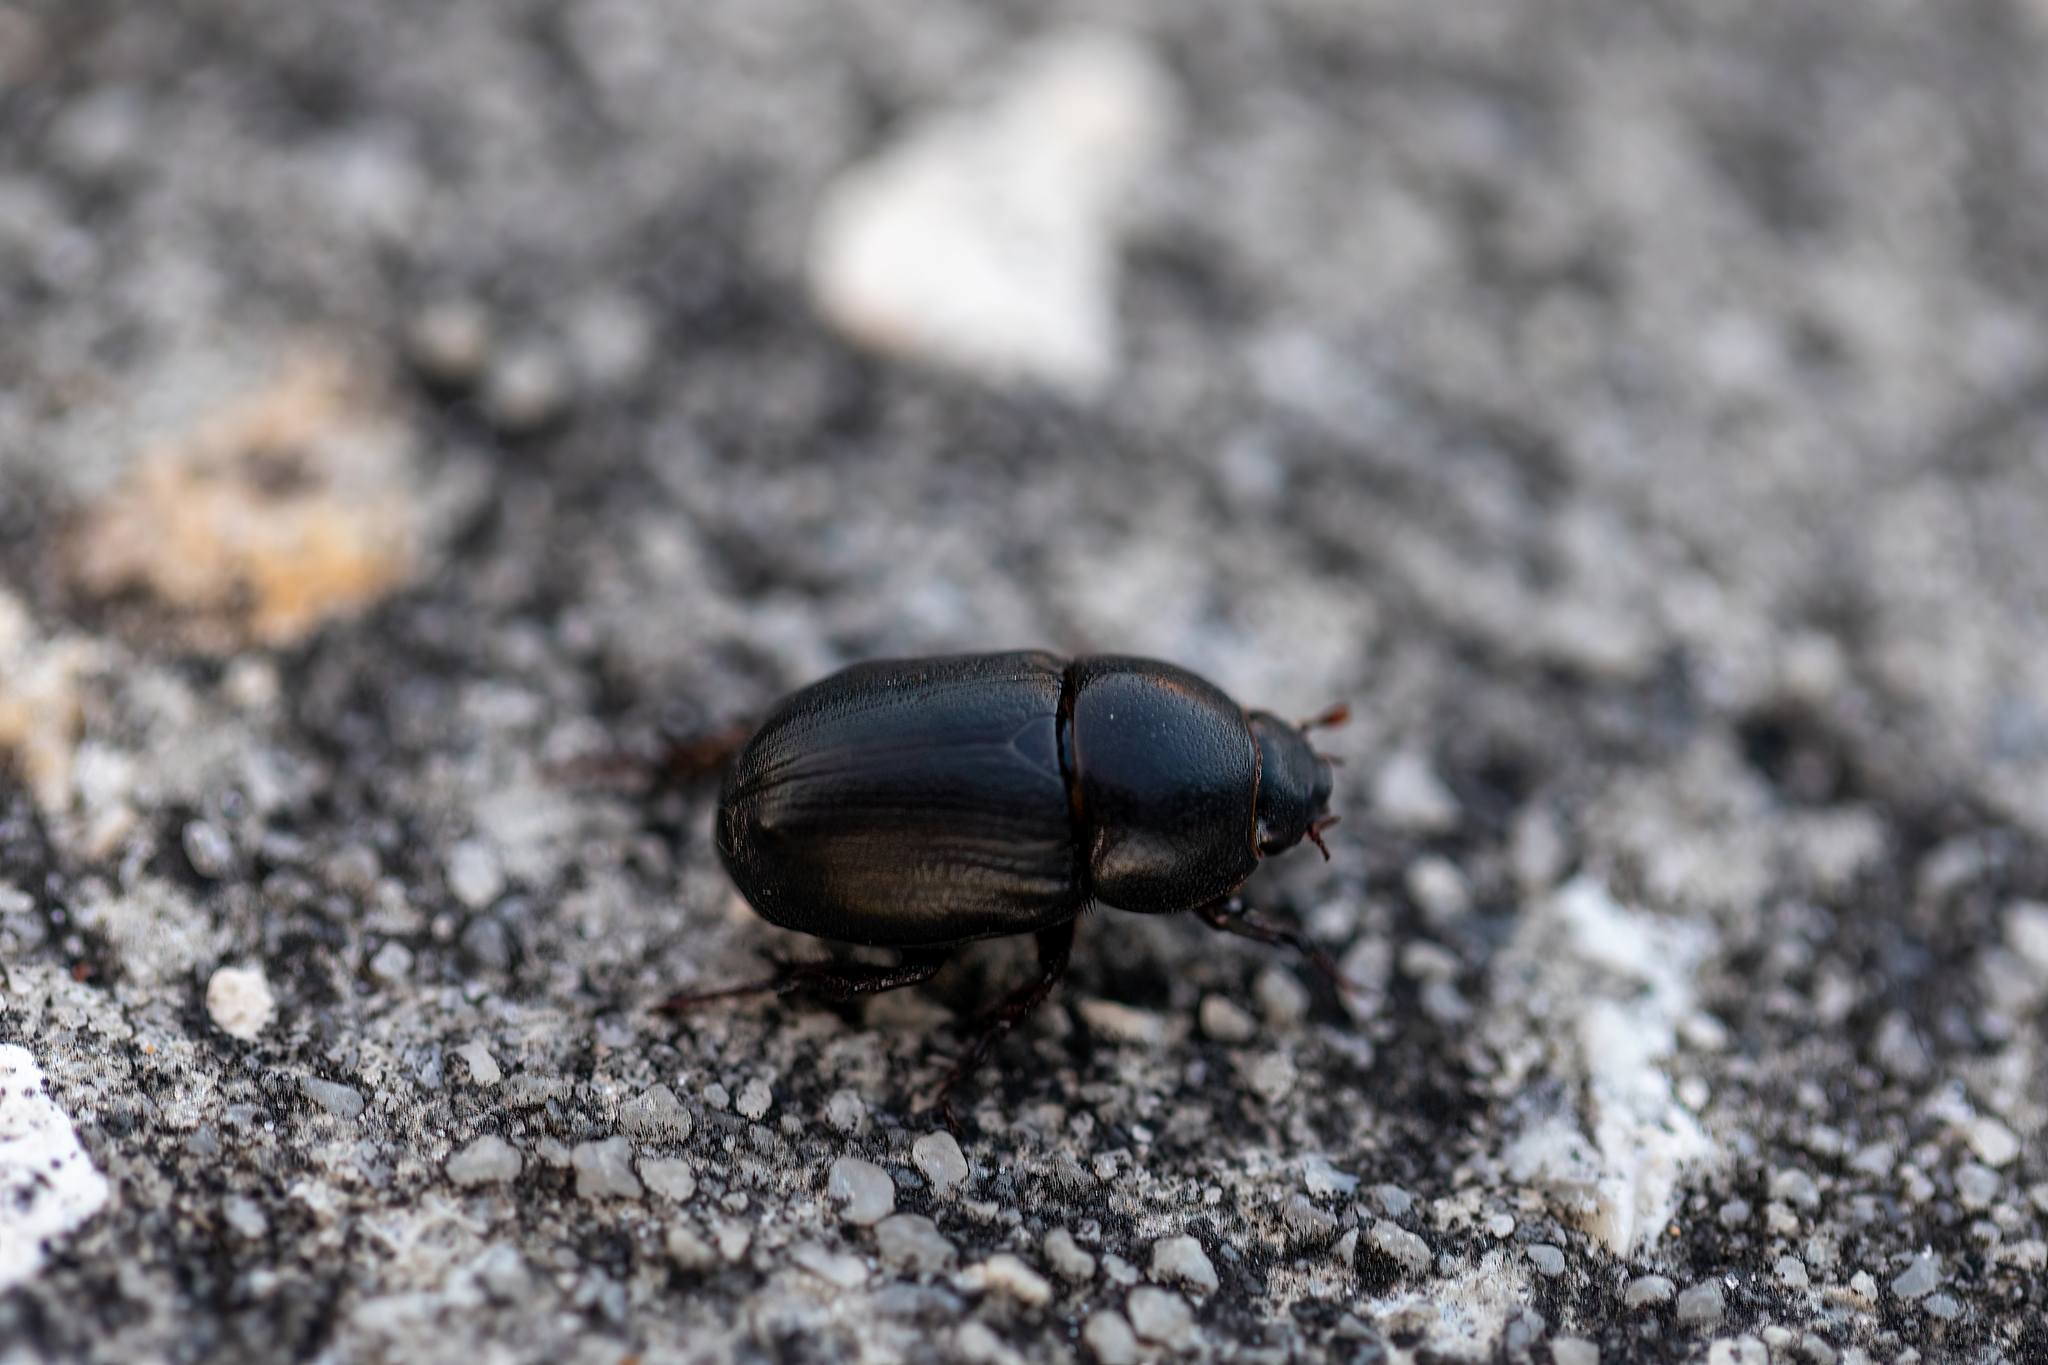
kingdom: Animalia
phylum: Arthropoda
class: Insecta
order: Coleoptera
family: Scarabaeidae
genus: Euetheola
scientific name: Euetheola humilis
